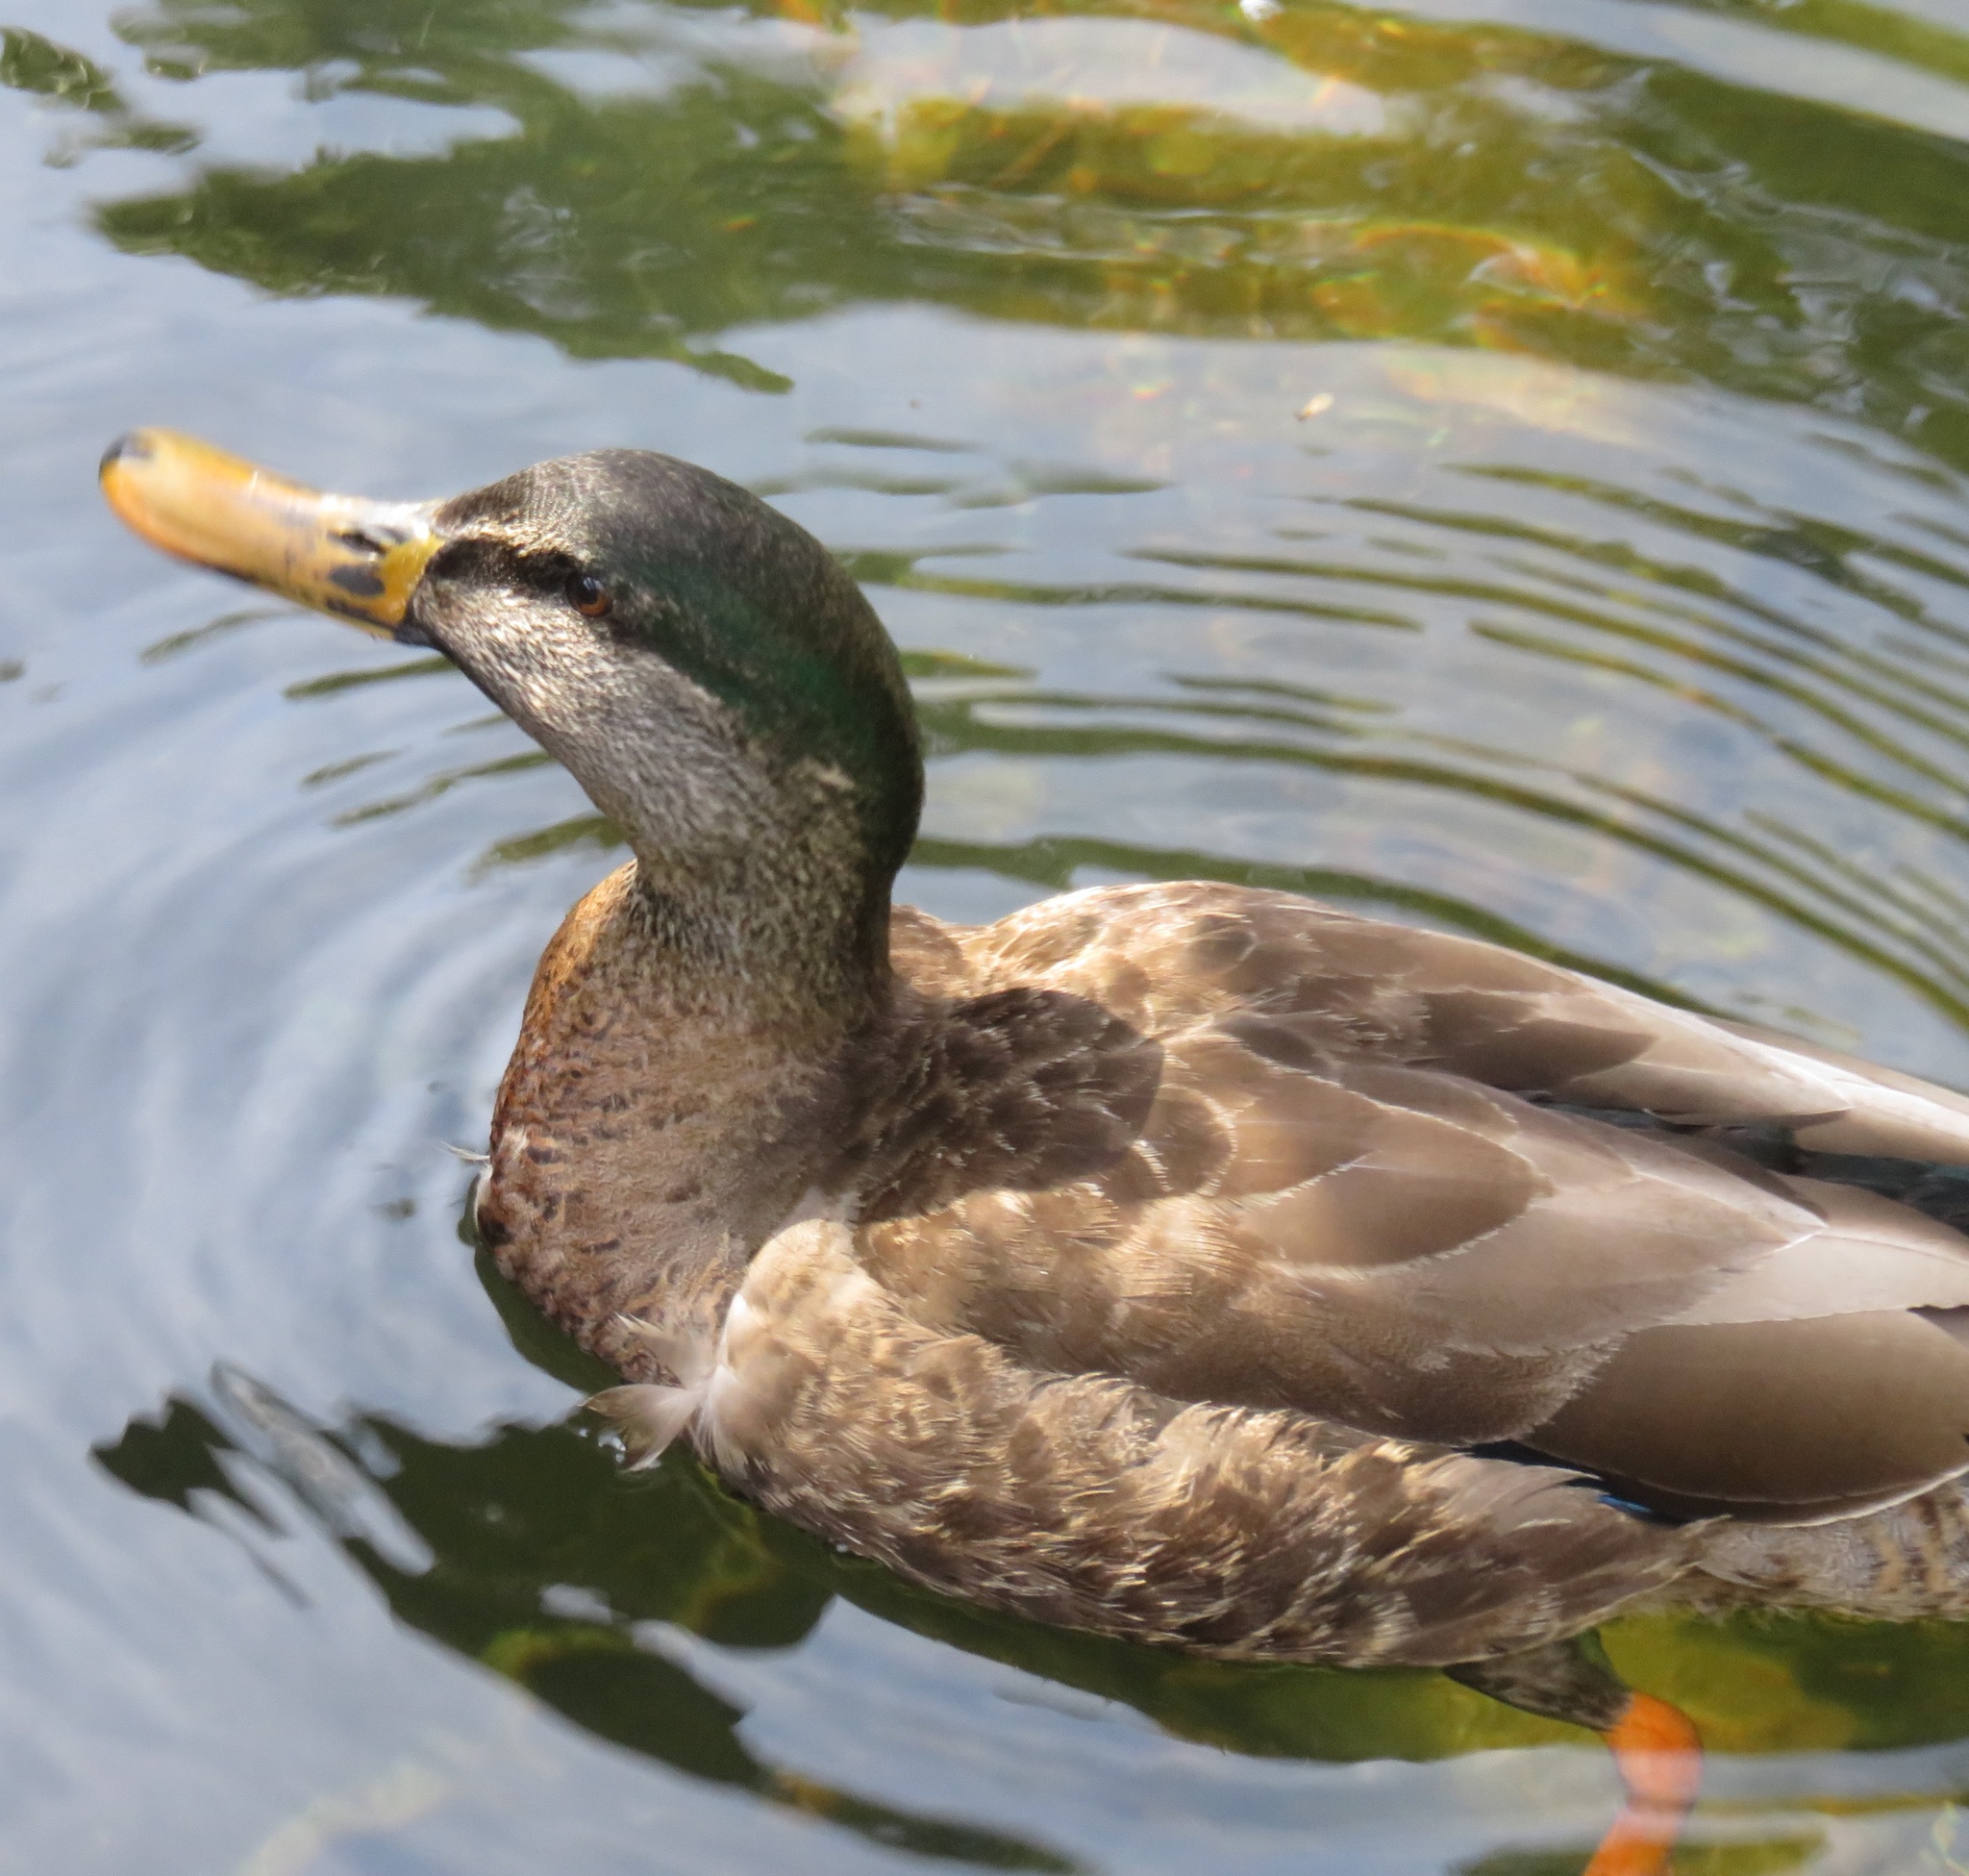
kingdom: Animalia
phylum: Chordata
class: Aves
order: Anseriformes
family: Anatidae
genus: Anas
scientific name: Anas
